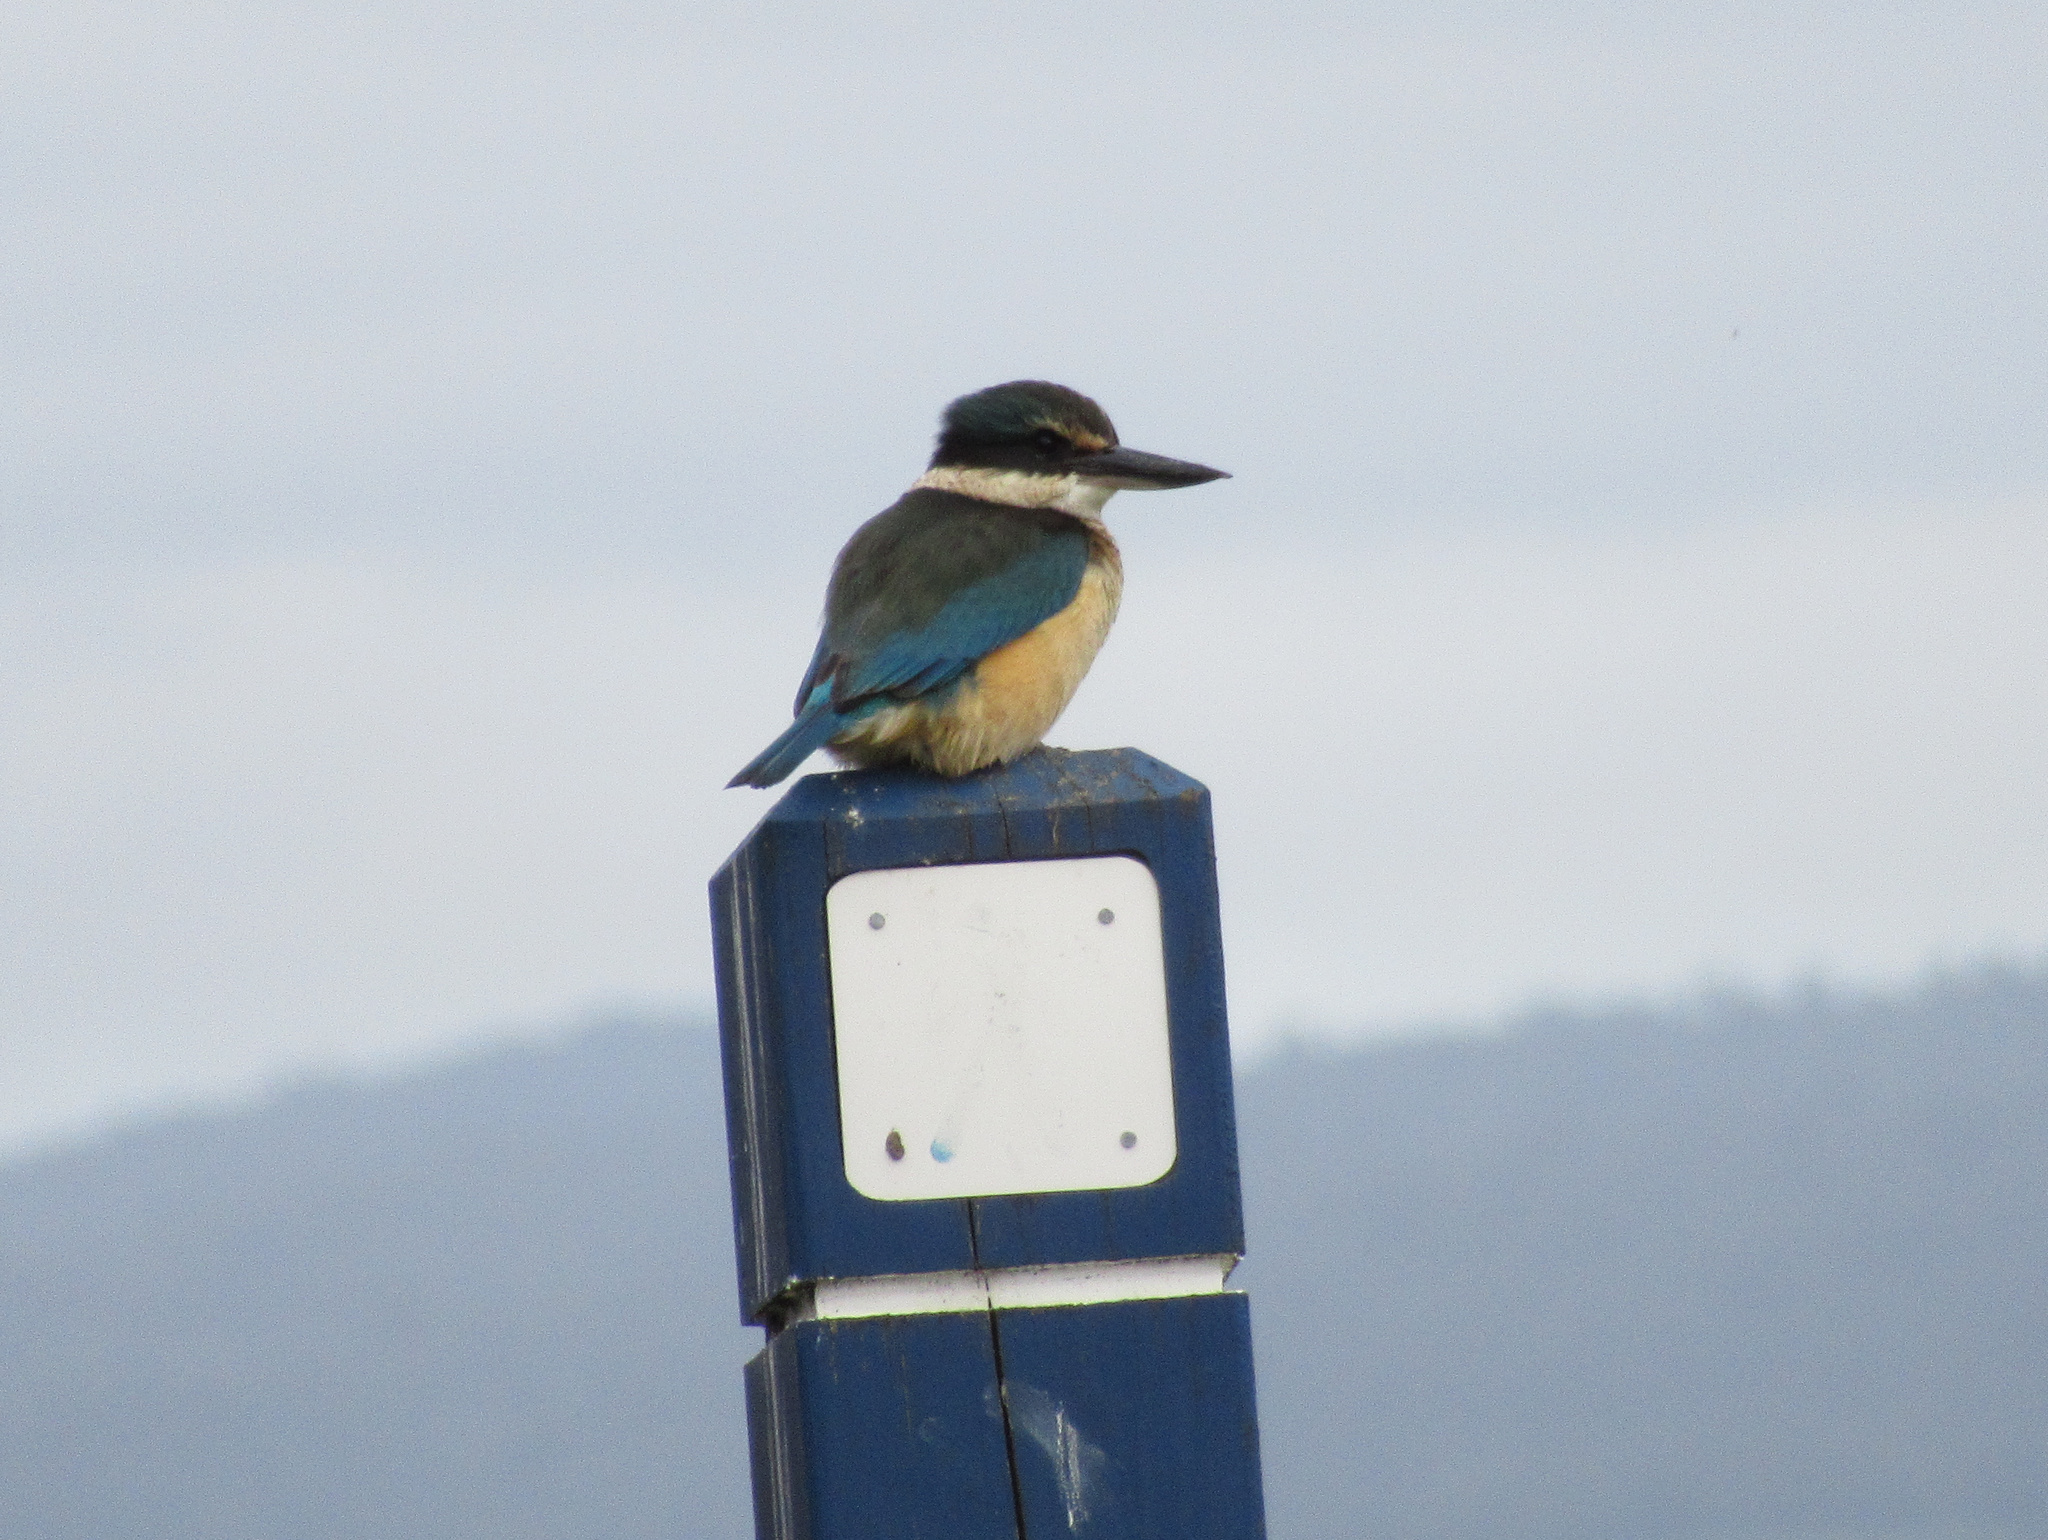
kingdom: Animalia
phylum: Chordata
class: Aves
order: Coraciiformes
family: Alcedinidae
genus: Todiramphus
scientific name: Todiramphus sanctus
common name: Sacred kingfisher
